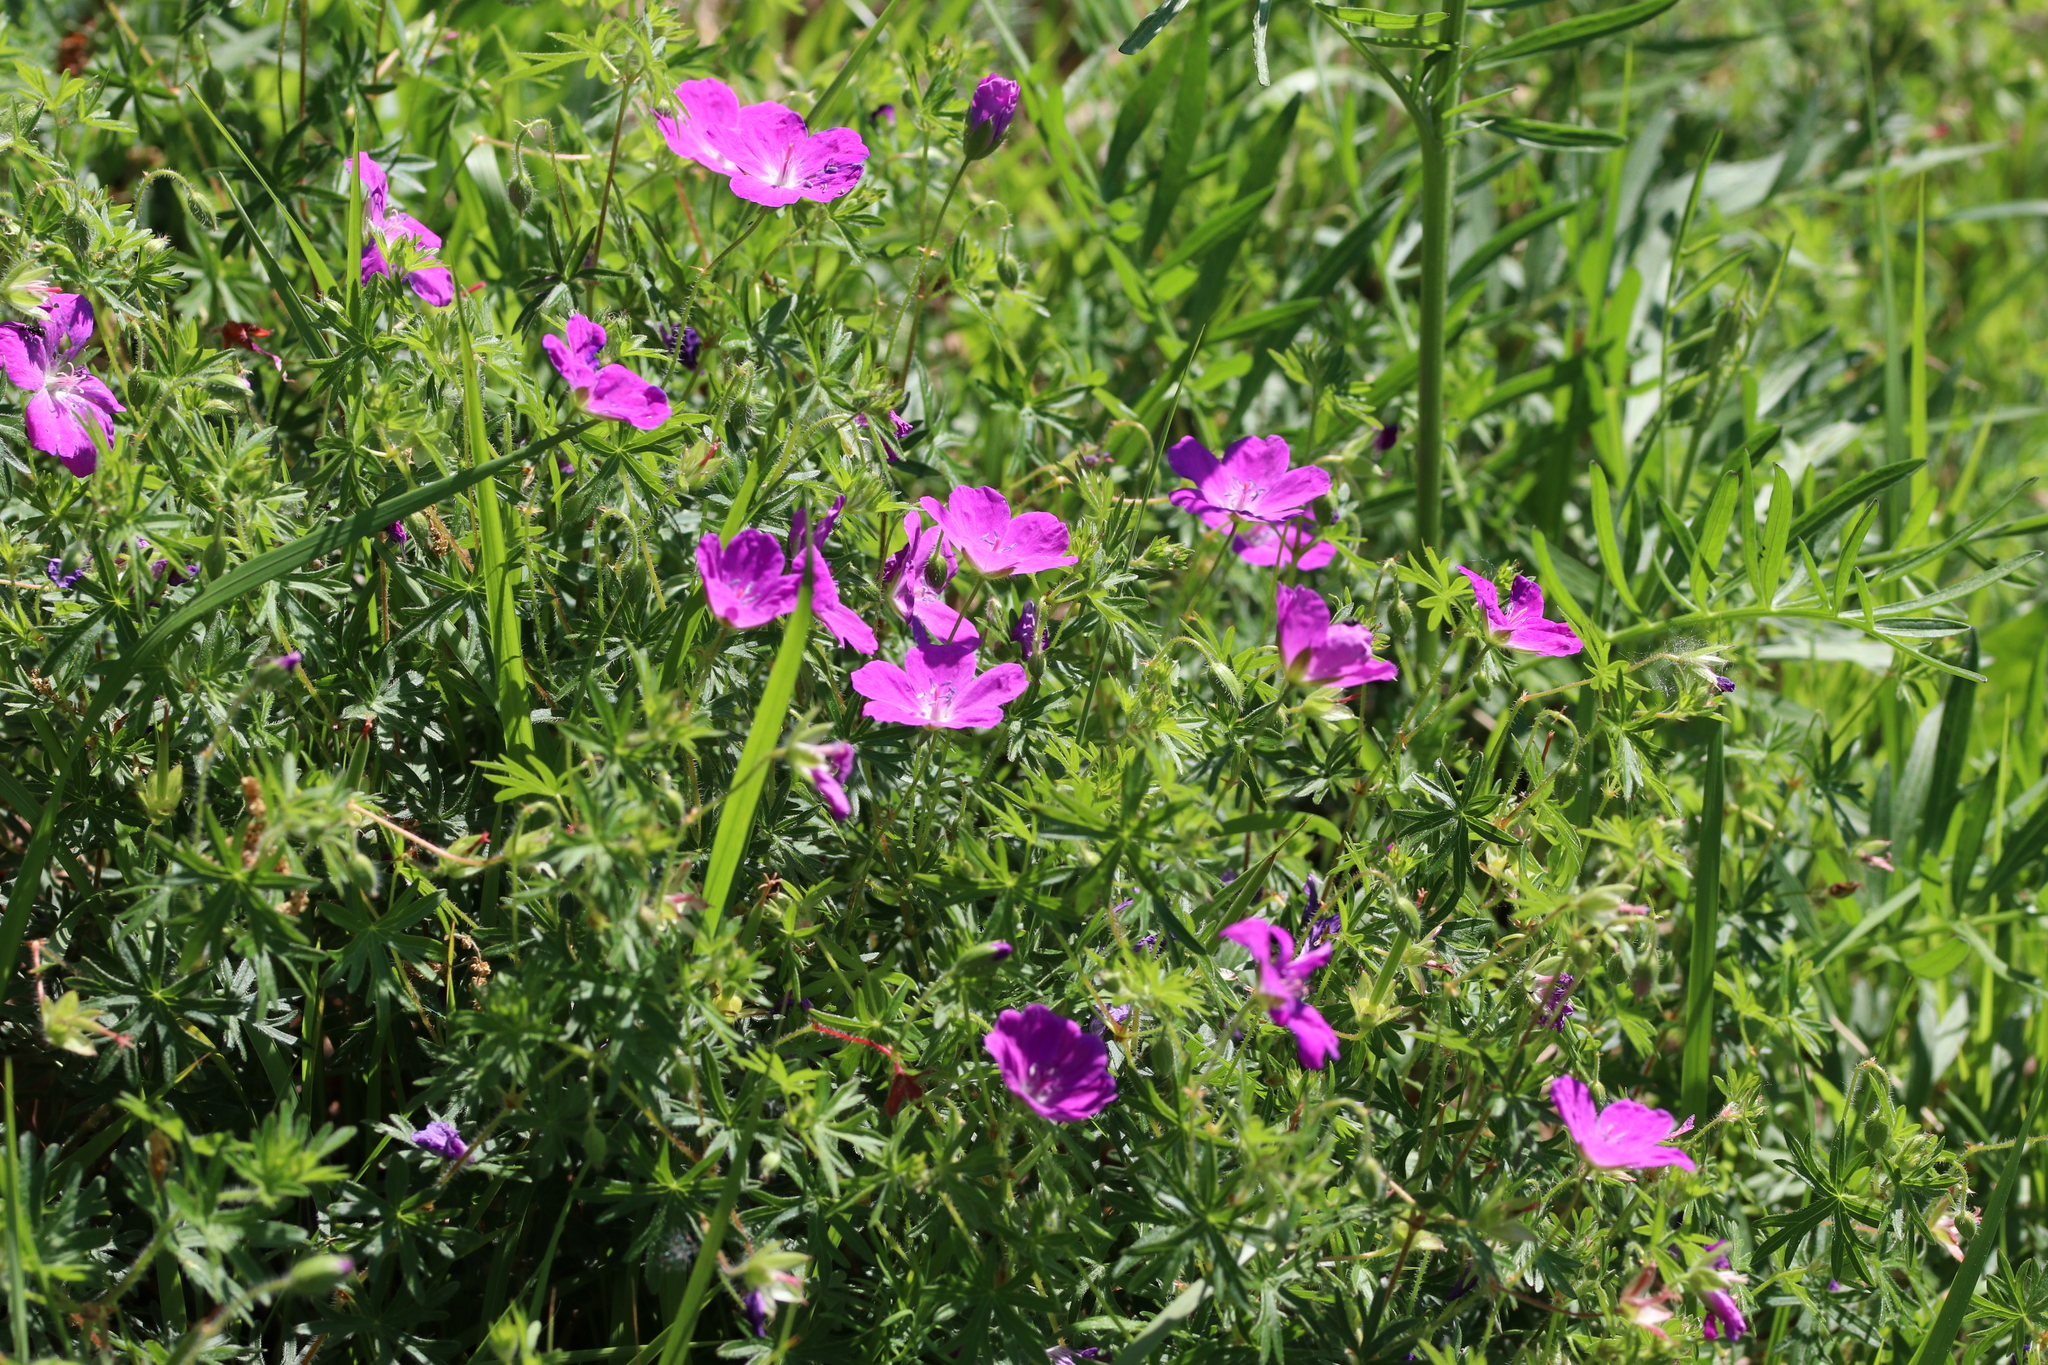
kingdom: Plantae
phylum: Tracheophyta
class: Magnoliopsida
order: Geraniales
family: Geraniaceae
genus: Geranium
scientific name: Geranium sanguineum
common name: Bloody crane's-bill
